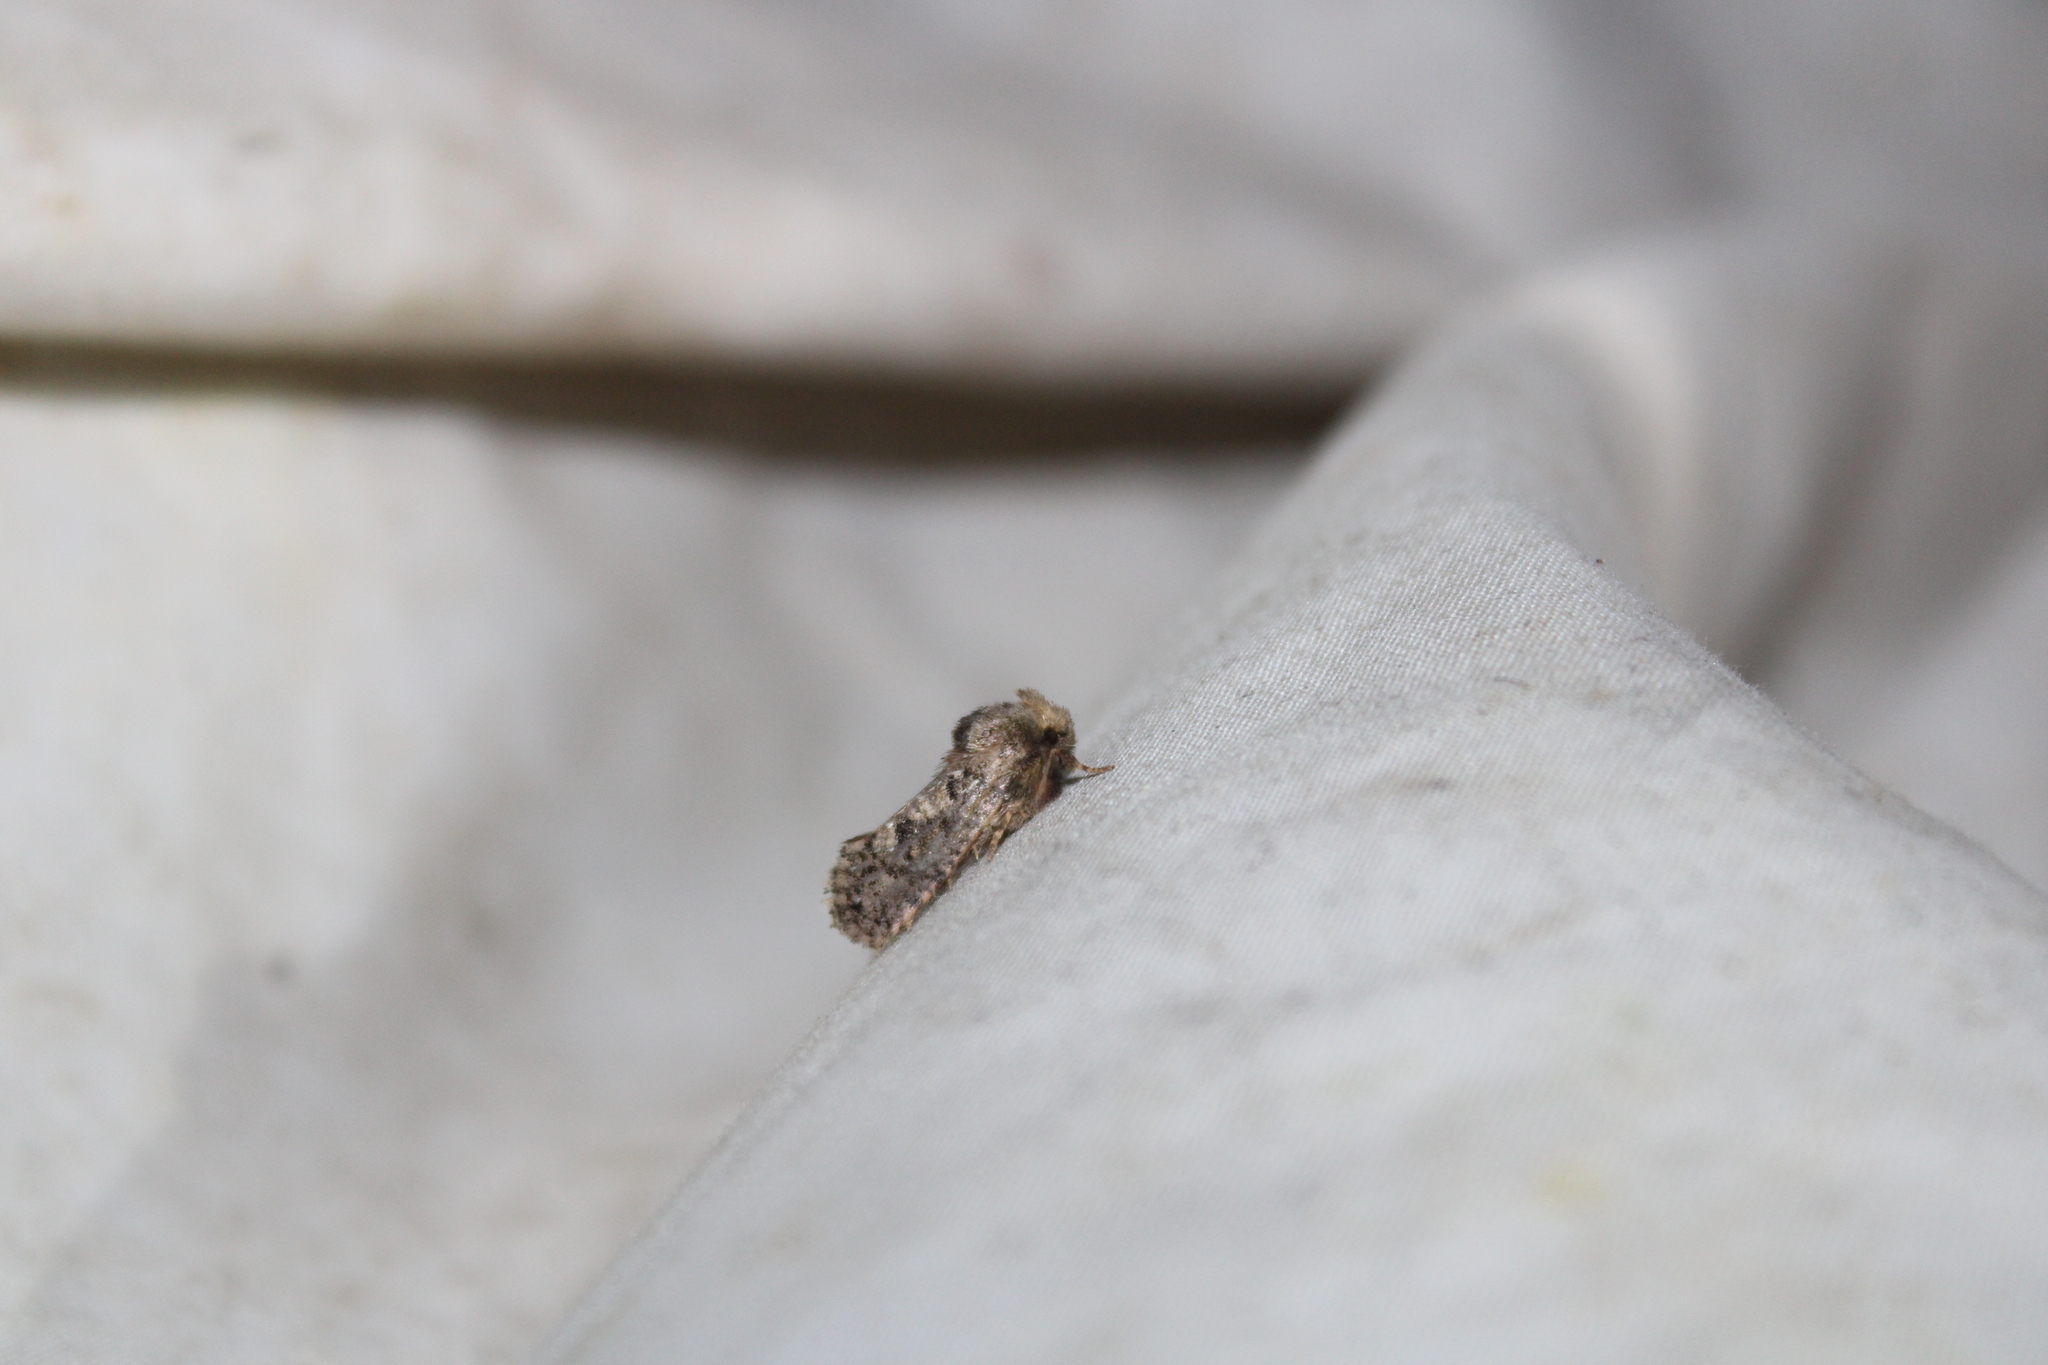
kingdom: Animalia
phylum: Arthropoda
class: Insecta
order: Lepidoptera
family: Tineidae
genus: Acrolophus
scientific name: Acrolophus arcanella
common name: Arcane grass tubeworm moth
